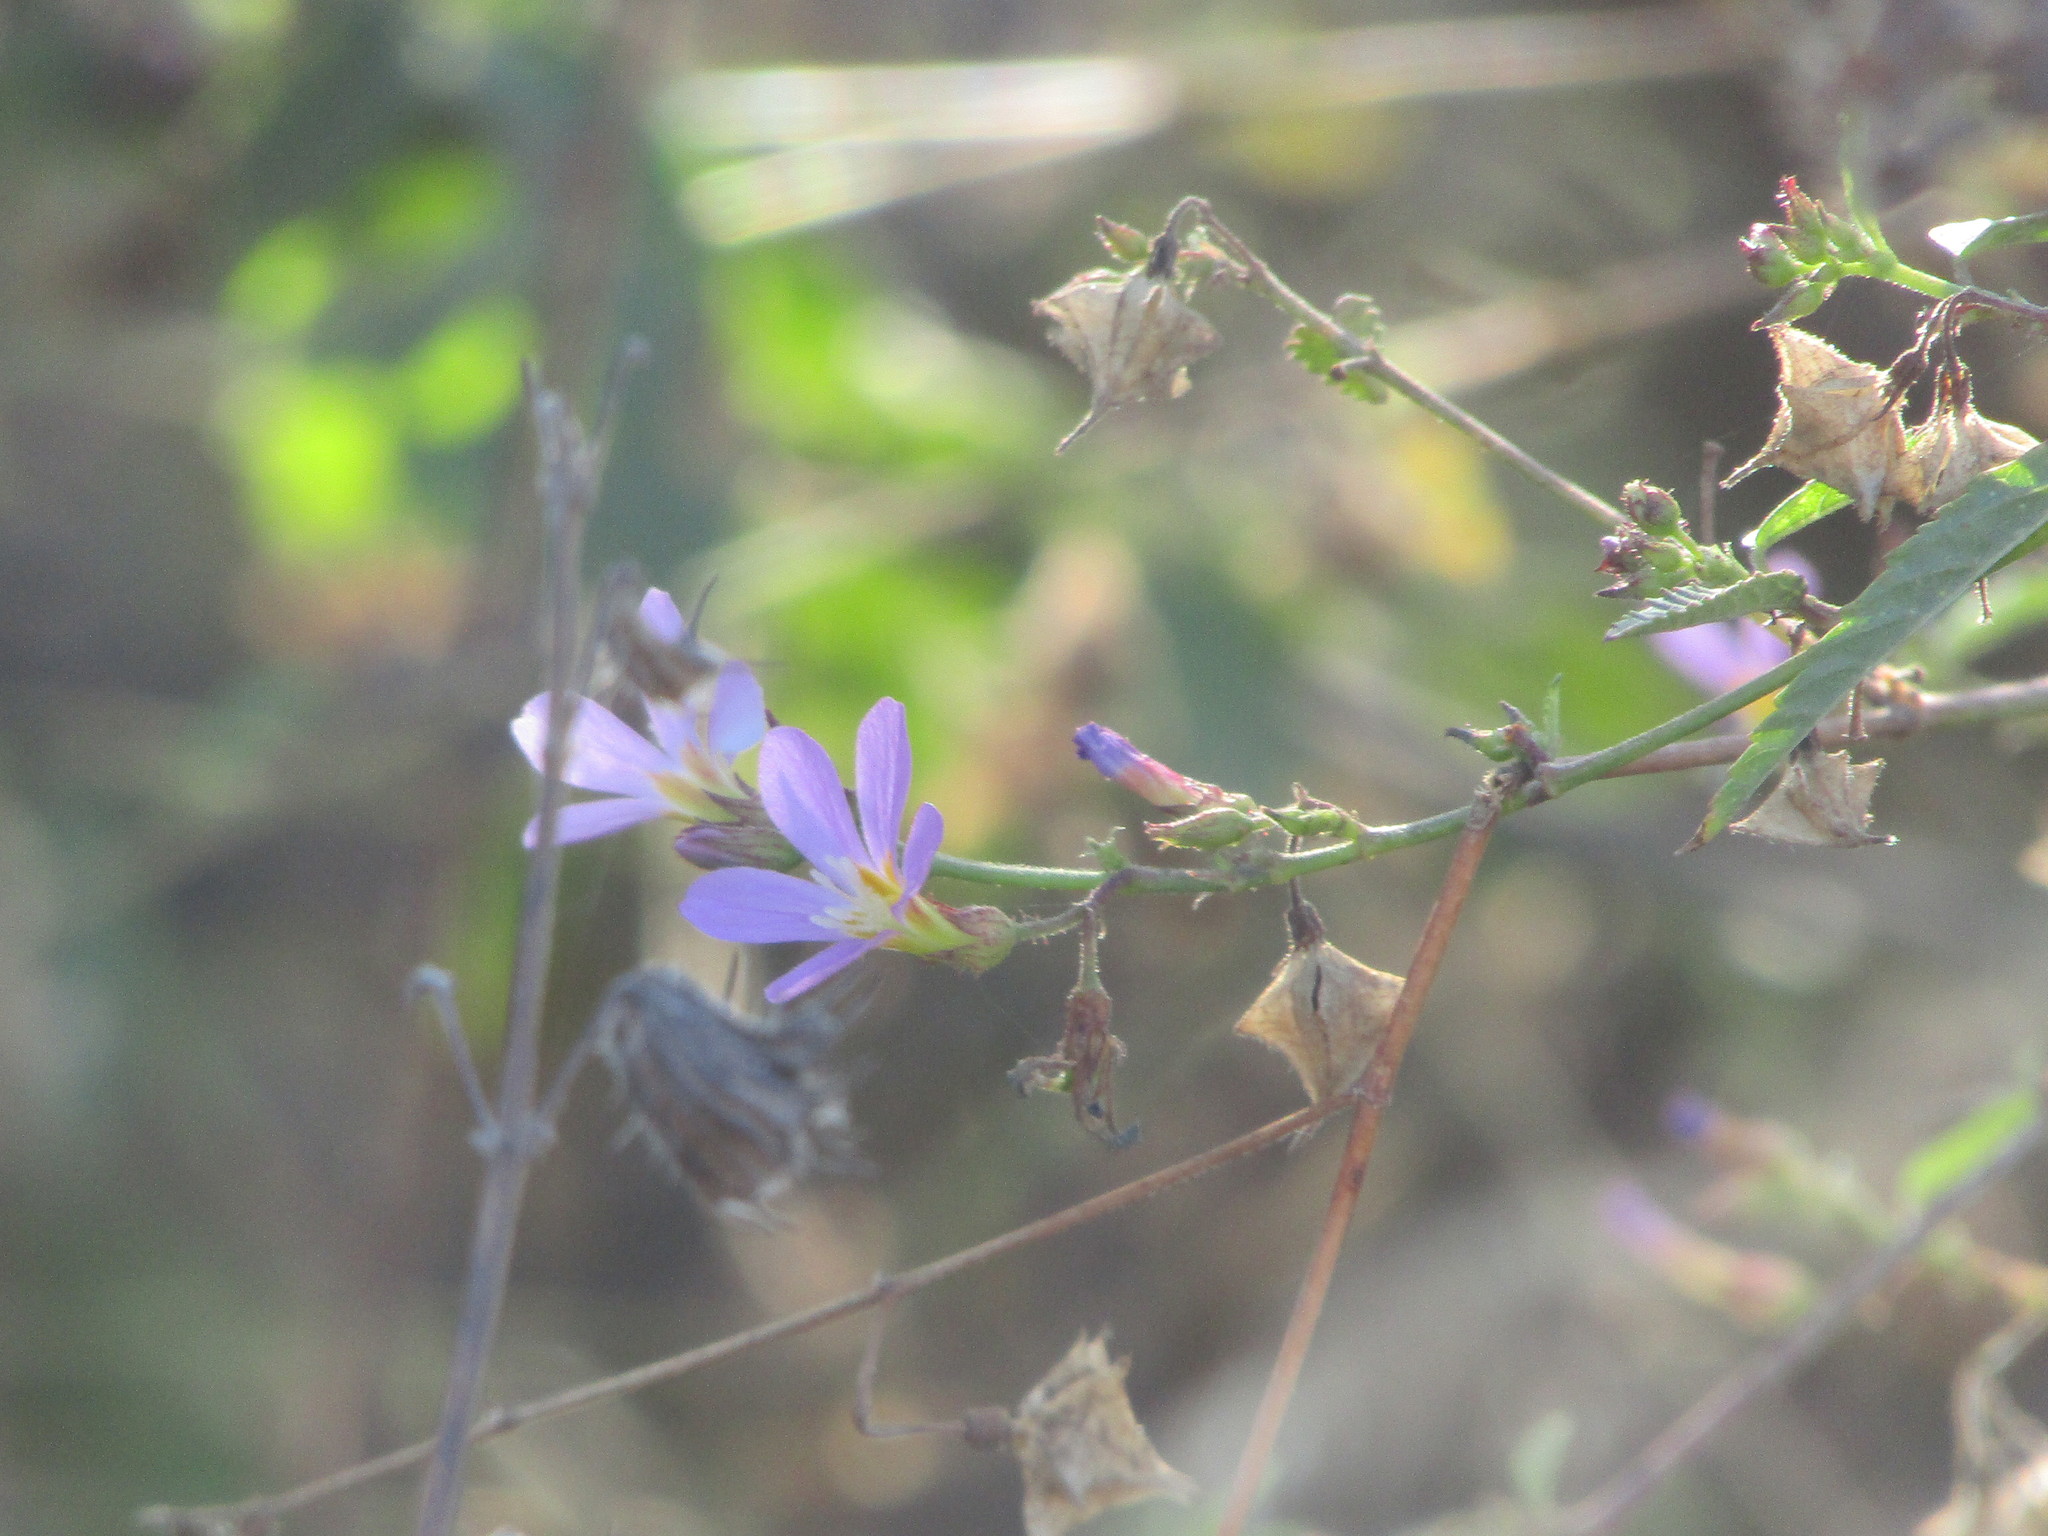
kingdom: Plantae
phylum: Tracheophyta
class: Magnoliopsida
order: Malvales
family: Malvaceae
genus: Melochia
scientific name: Melochia pyramidata
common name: Pyramidflower
